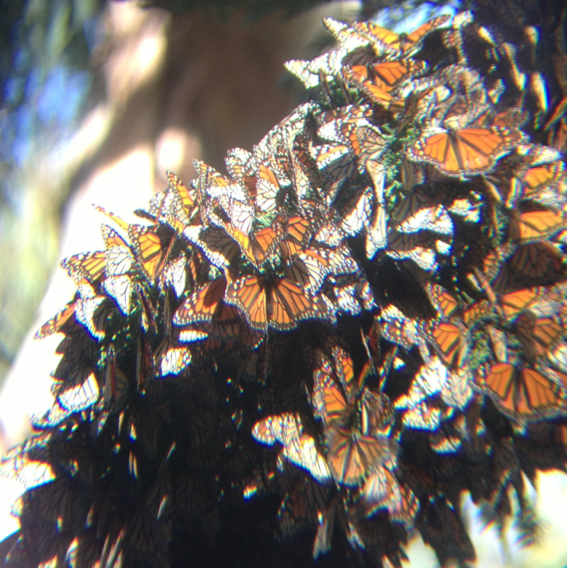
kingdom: Animalia
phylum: Arthropoda
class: Insecta
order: Lepidoptera
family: Nymphalidae
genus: Danaus
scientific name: Danaus plexippus
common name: Monarch
